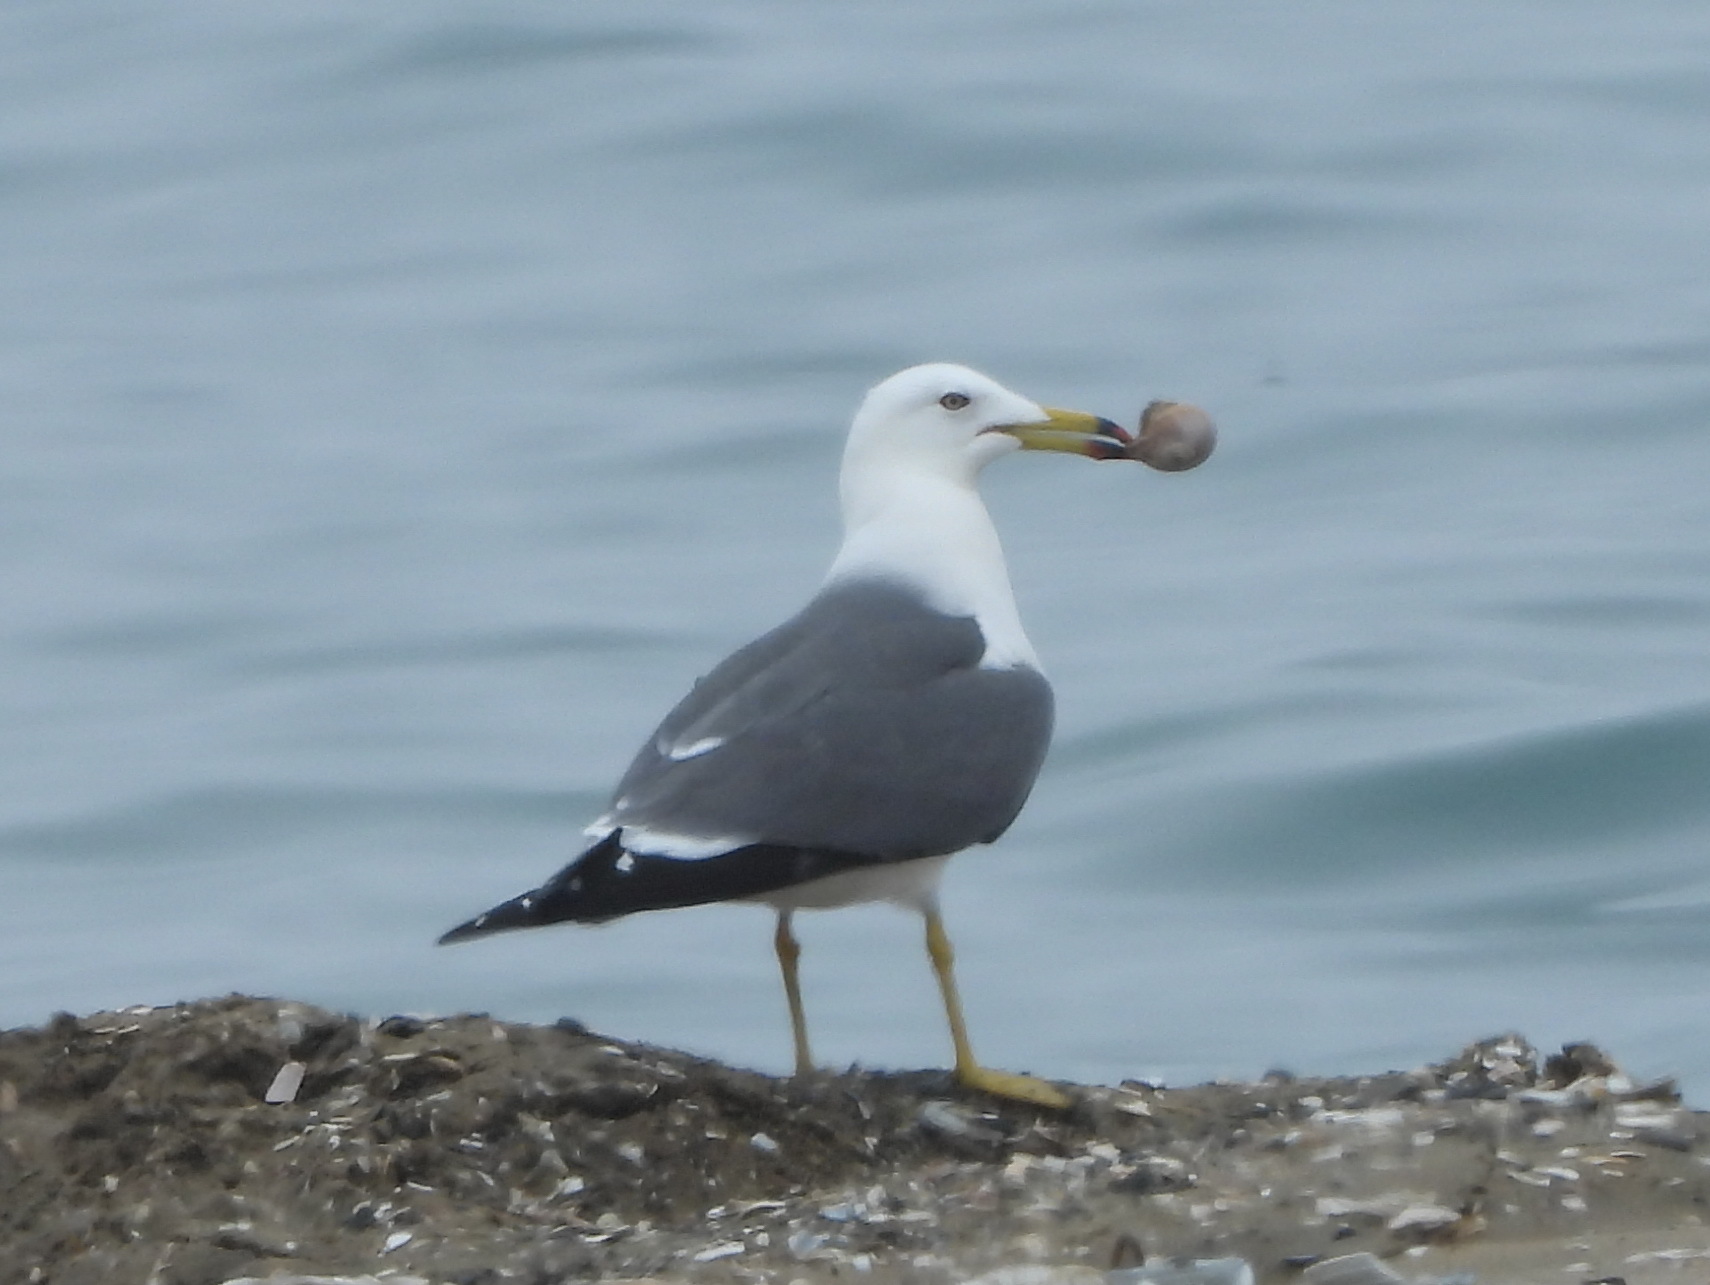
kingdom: Animalia
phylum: Chordata
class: Aves
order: Charadriiformes
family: Laridae
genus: Larus
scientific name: Larus crassirostris
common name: Black-tailed gull
